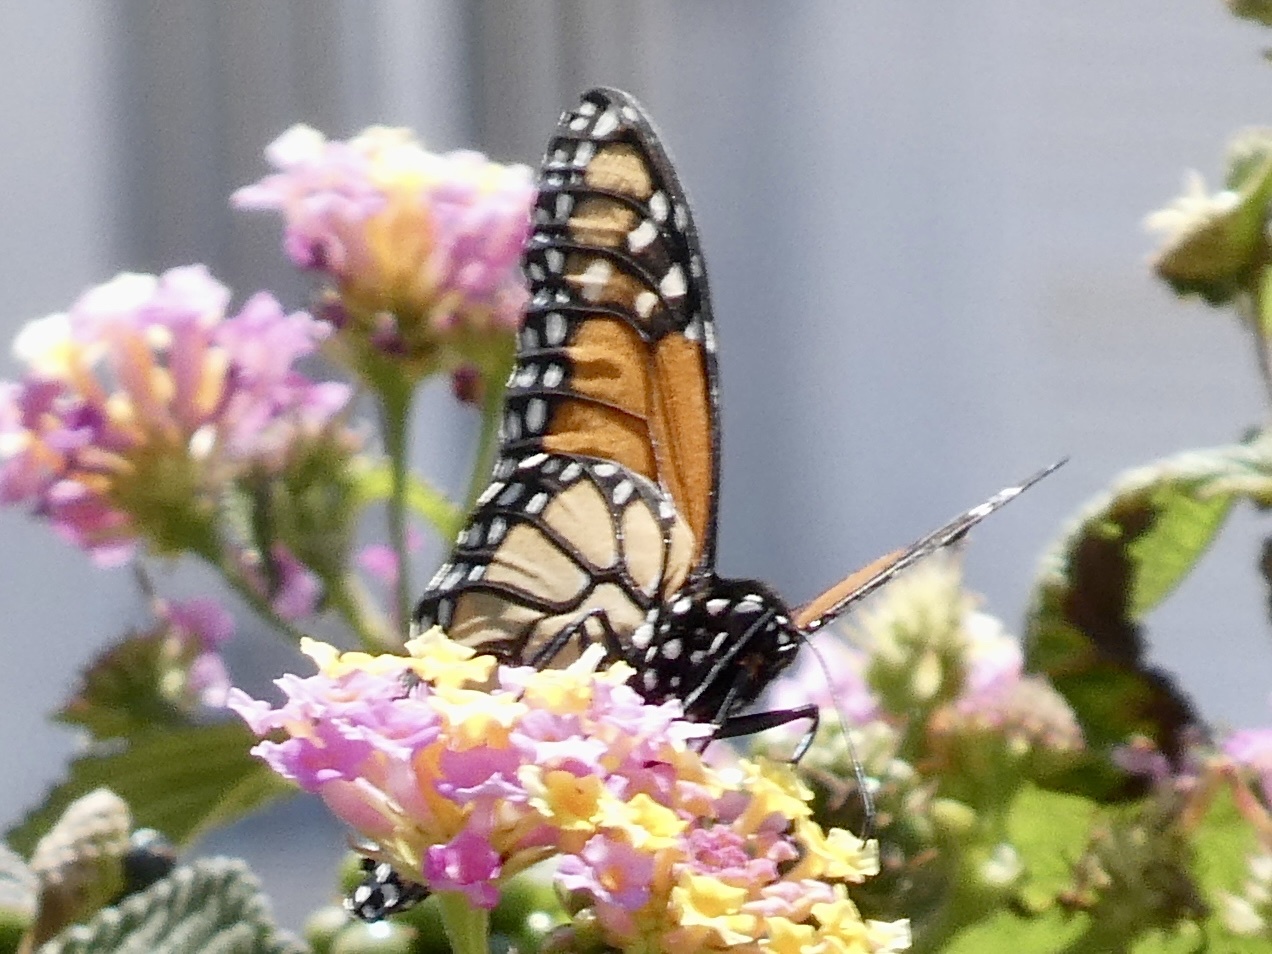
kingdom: Animalia
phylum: Arthropoda
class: Insecta
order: Lepidoptera
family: Nymphalidae
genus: Danaus
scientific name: Danaus plexippus
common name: Monarch
